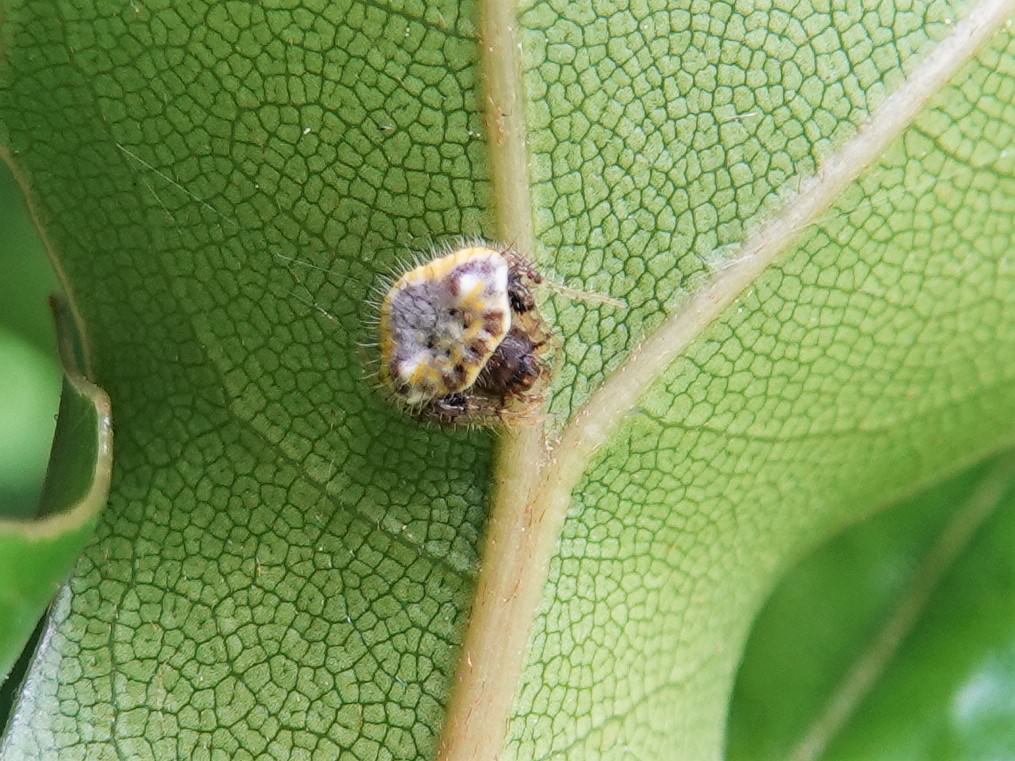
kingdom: Animalia
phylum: Arthropoda
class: Arachnida
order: Araneae
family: Araneidae
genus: Poecilopachys
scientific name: Poecilopachys australasia
